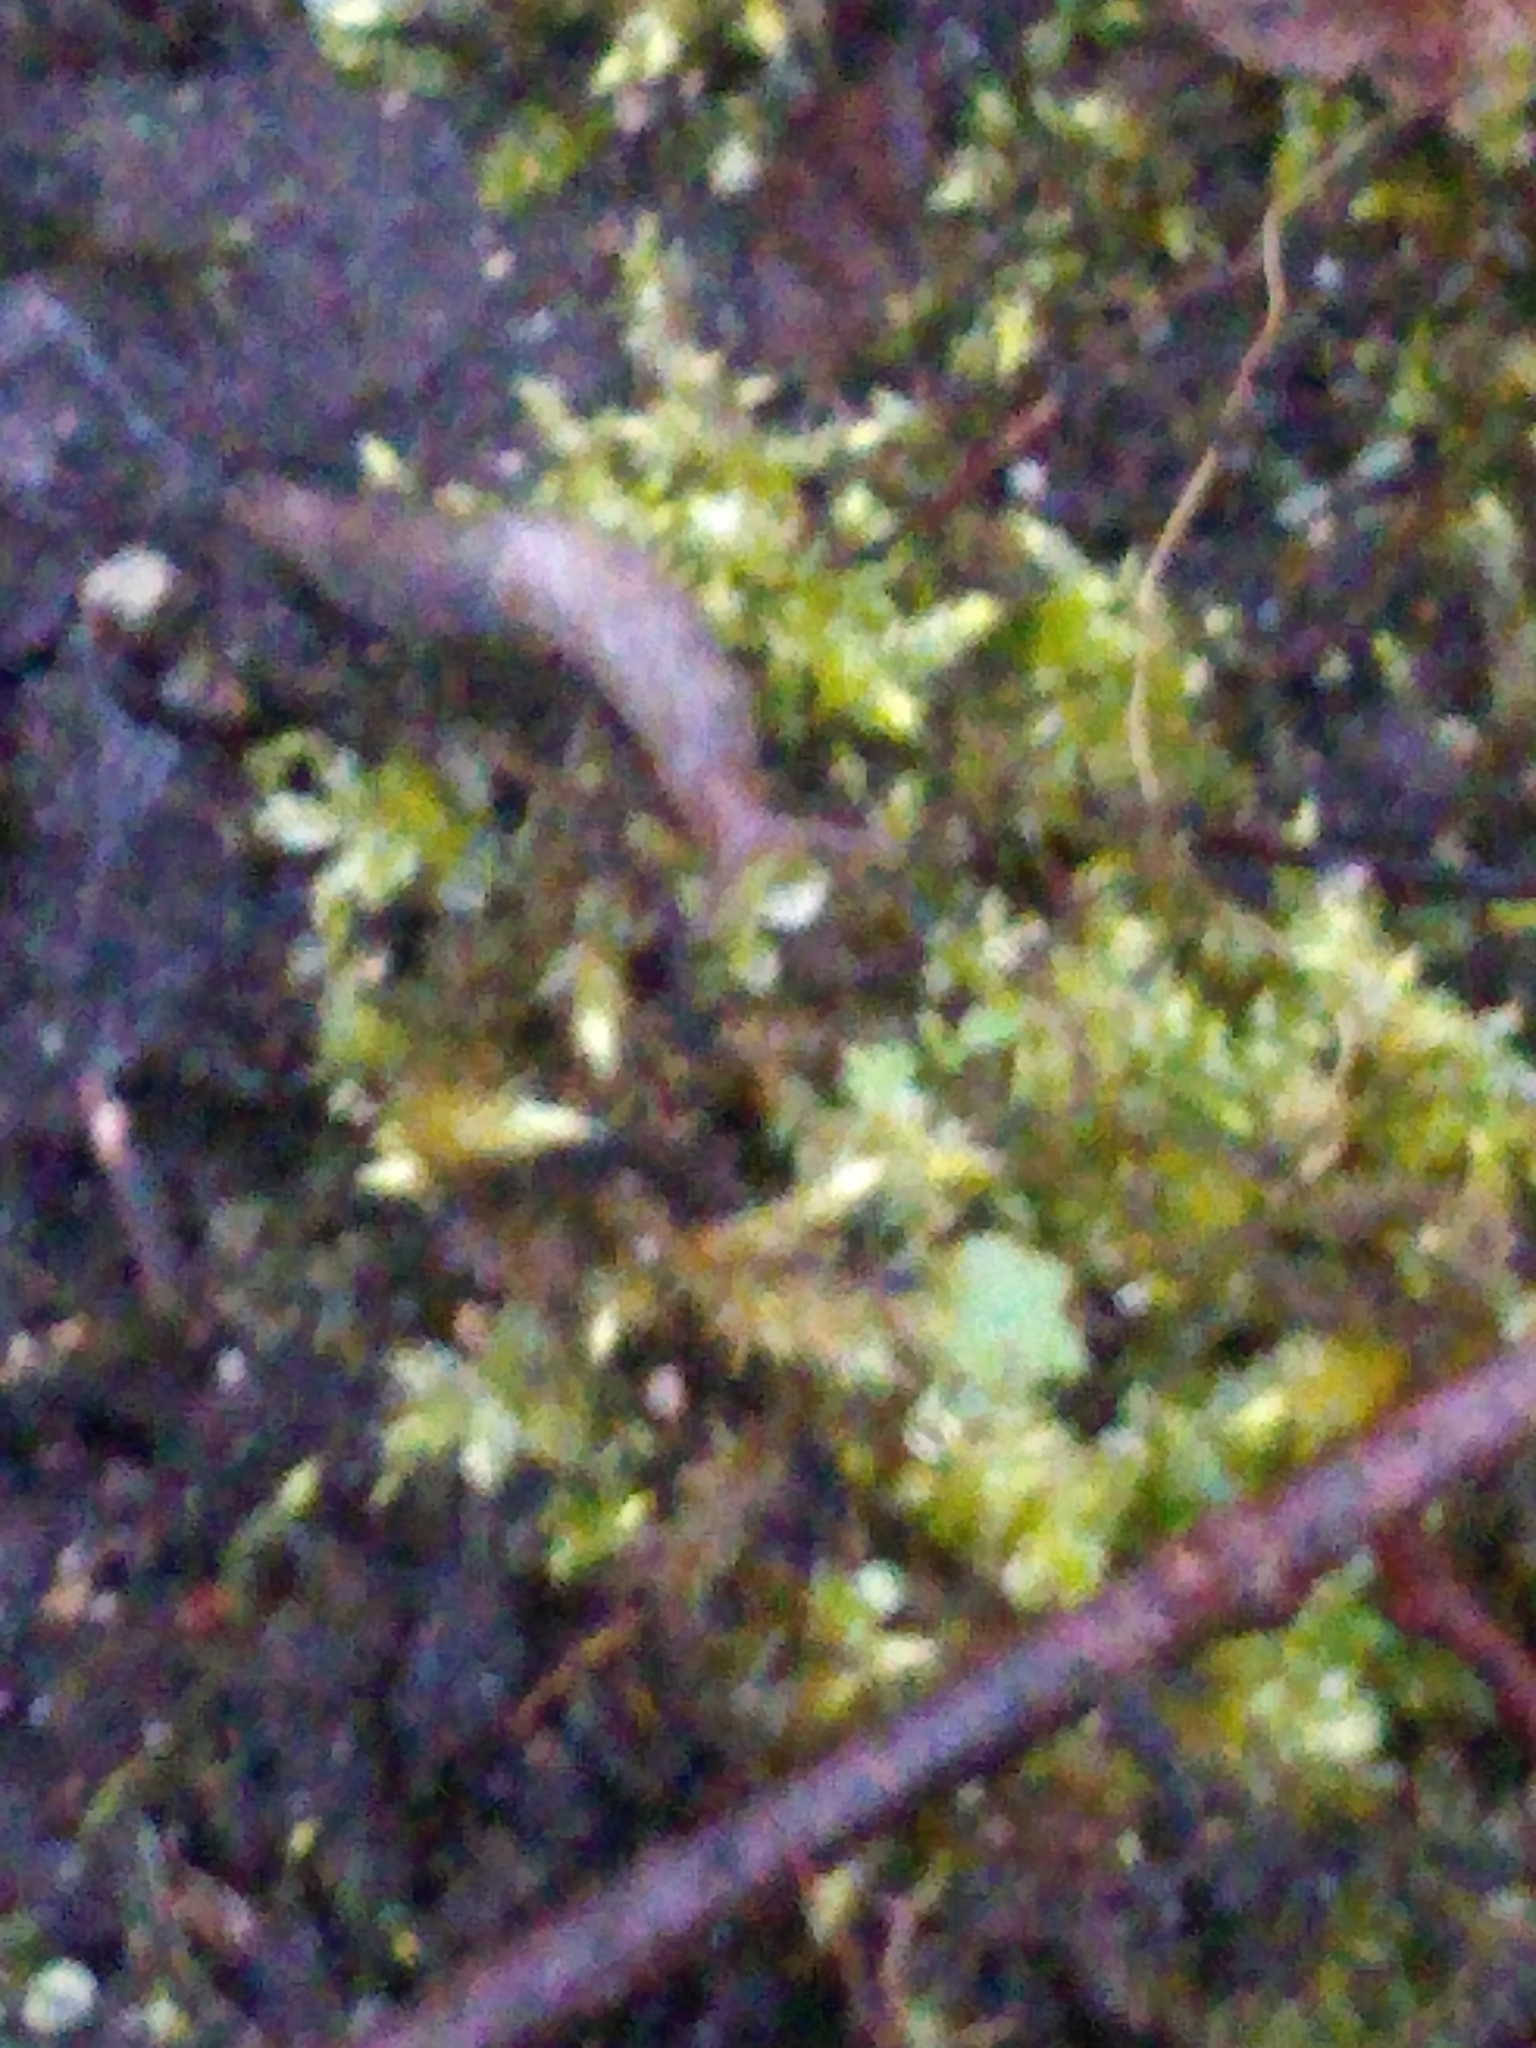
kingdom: Animalia
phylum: Mollusca
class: Gastropoda
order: Stylommatophora
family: Agriolimacidae
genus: Deroceras
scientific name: Deroceras reticulatum
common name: Gray field slug
